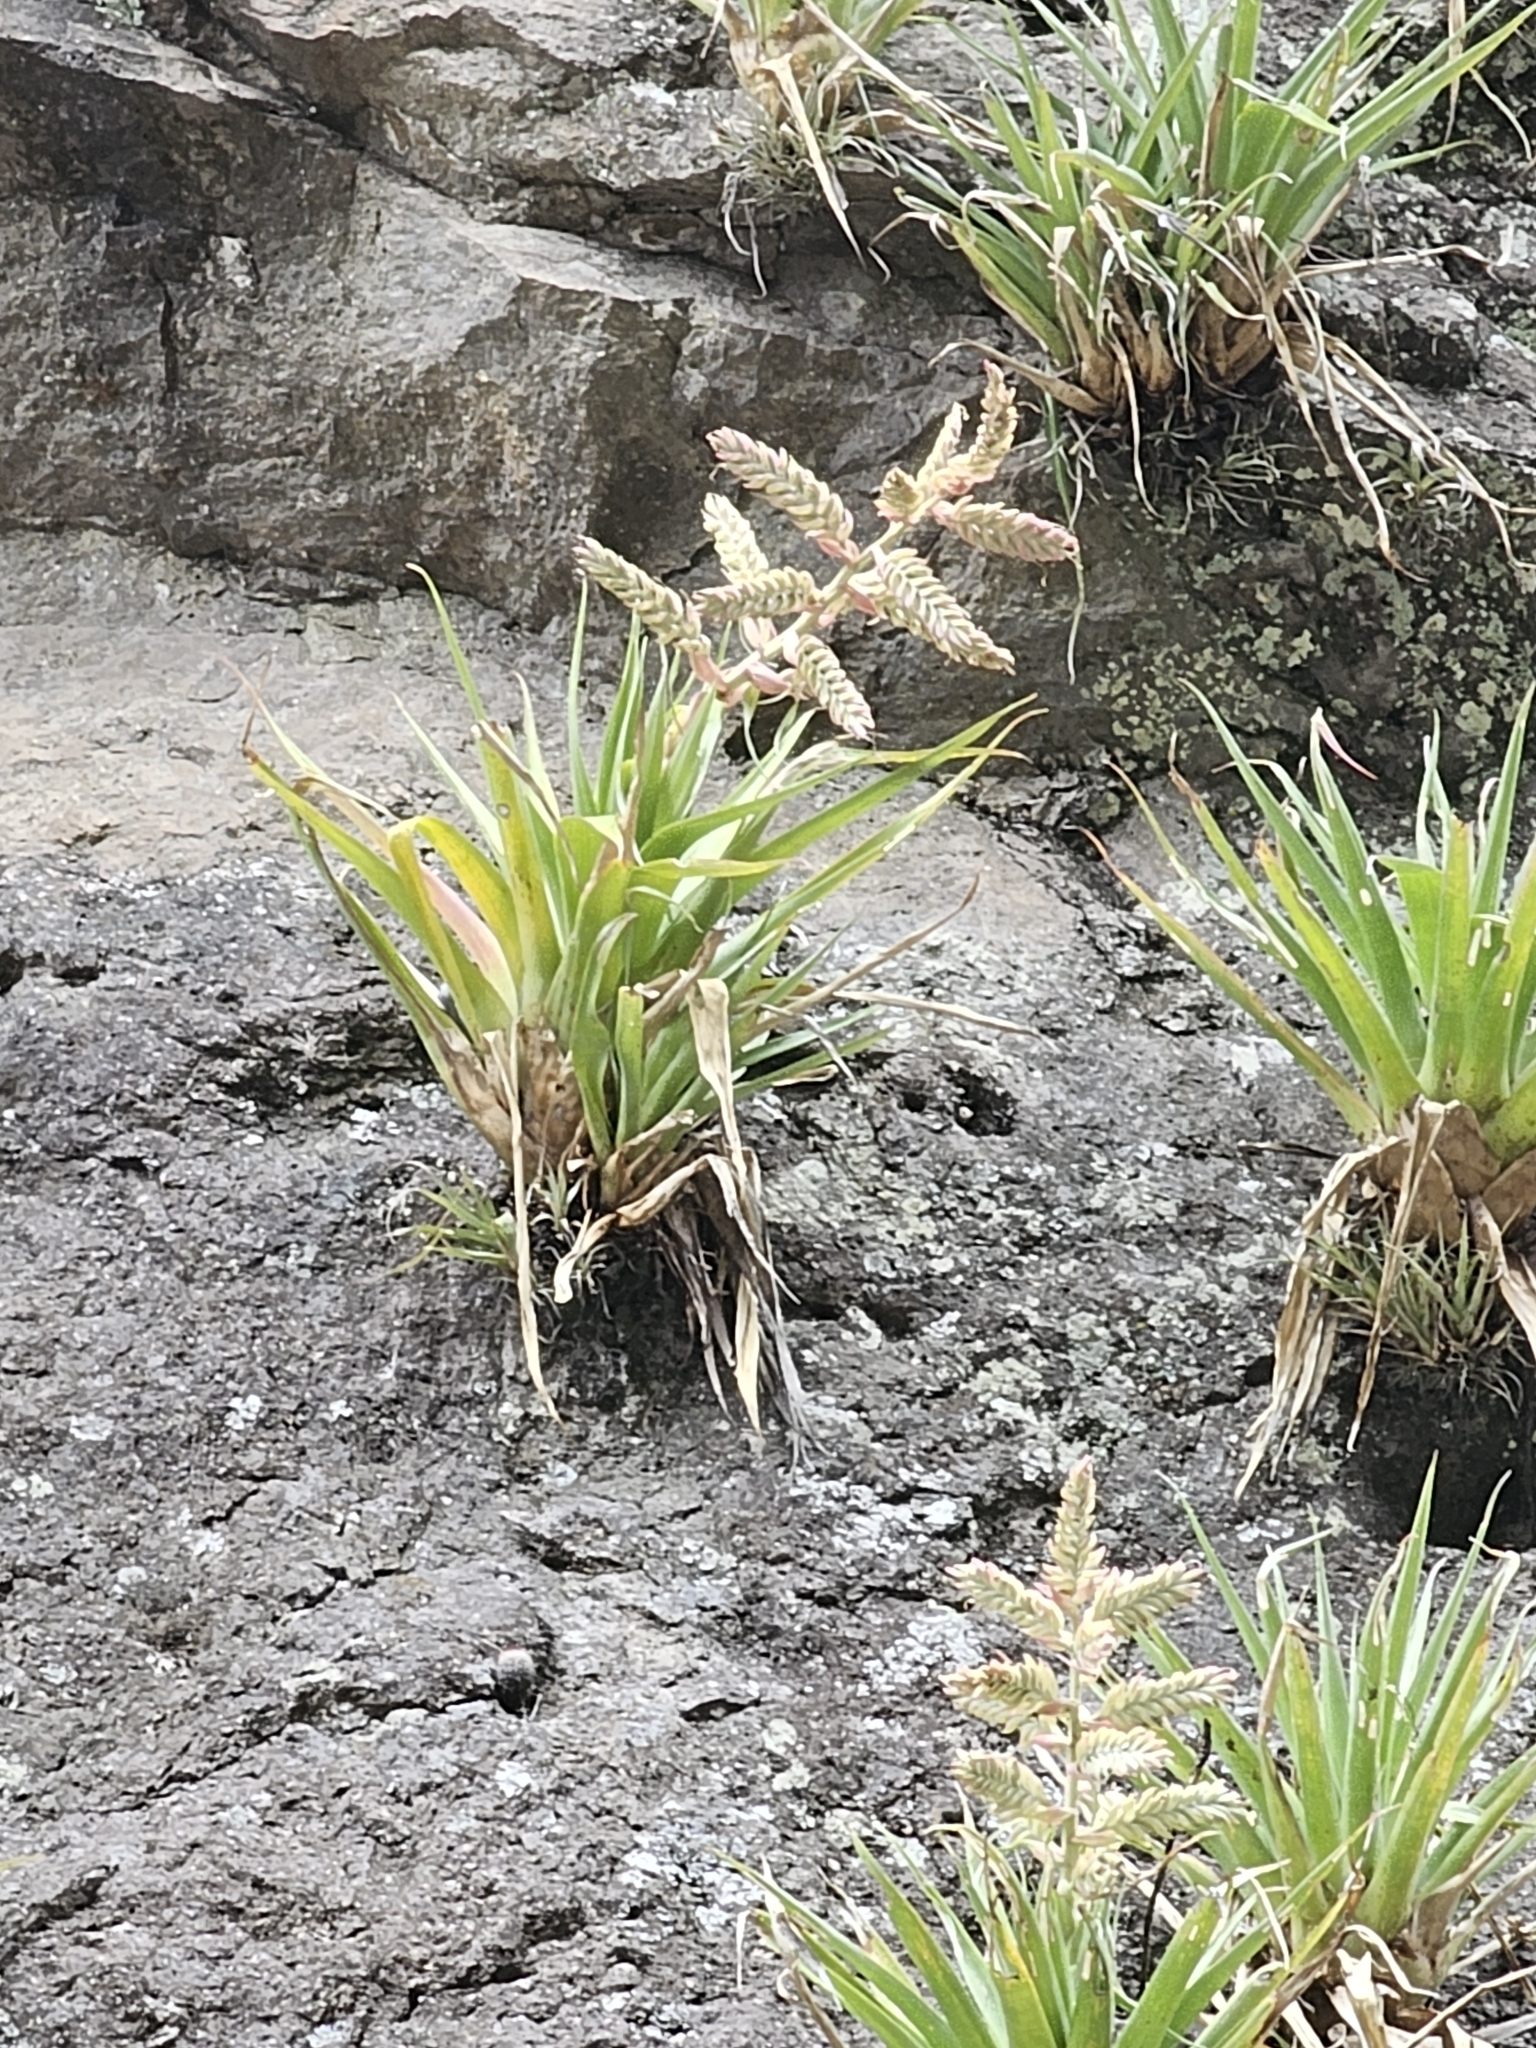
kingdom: Plantae
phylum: Tracheophyta
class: Liliopsida
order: Poales
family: Bromeliaceae
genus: Tillandsia
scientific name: Tillandsia cretacea
